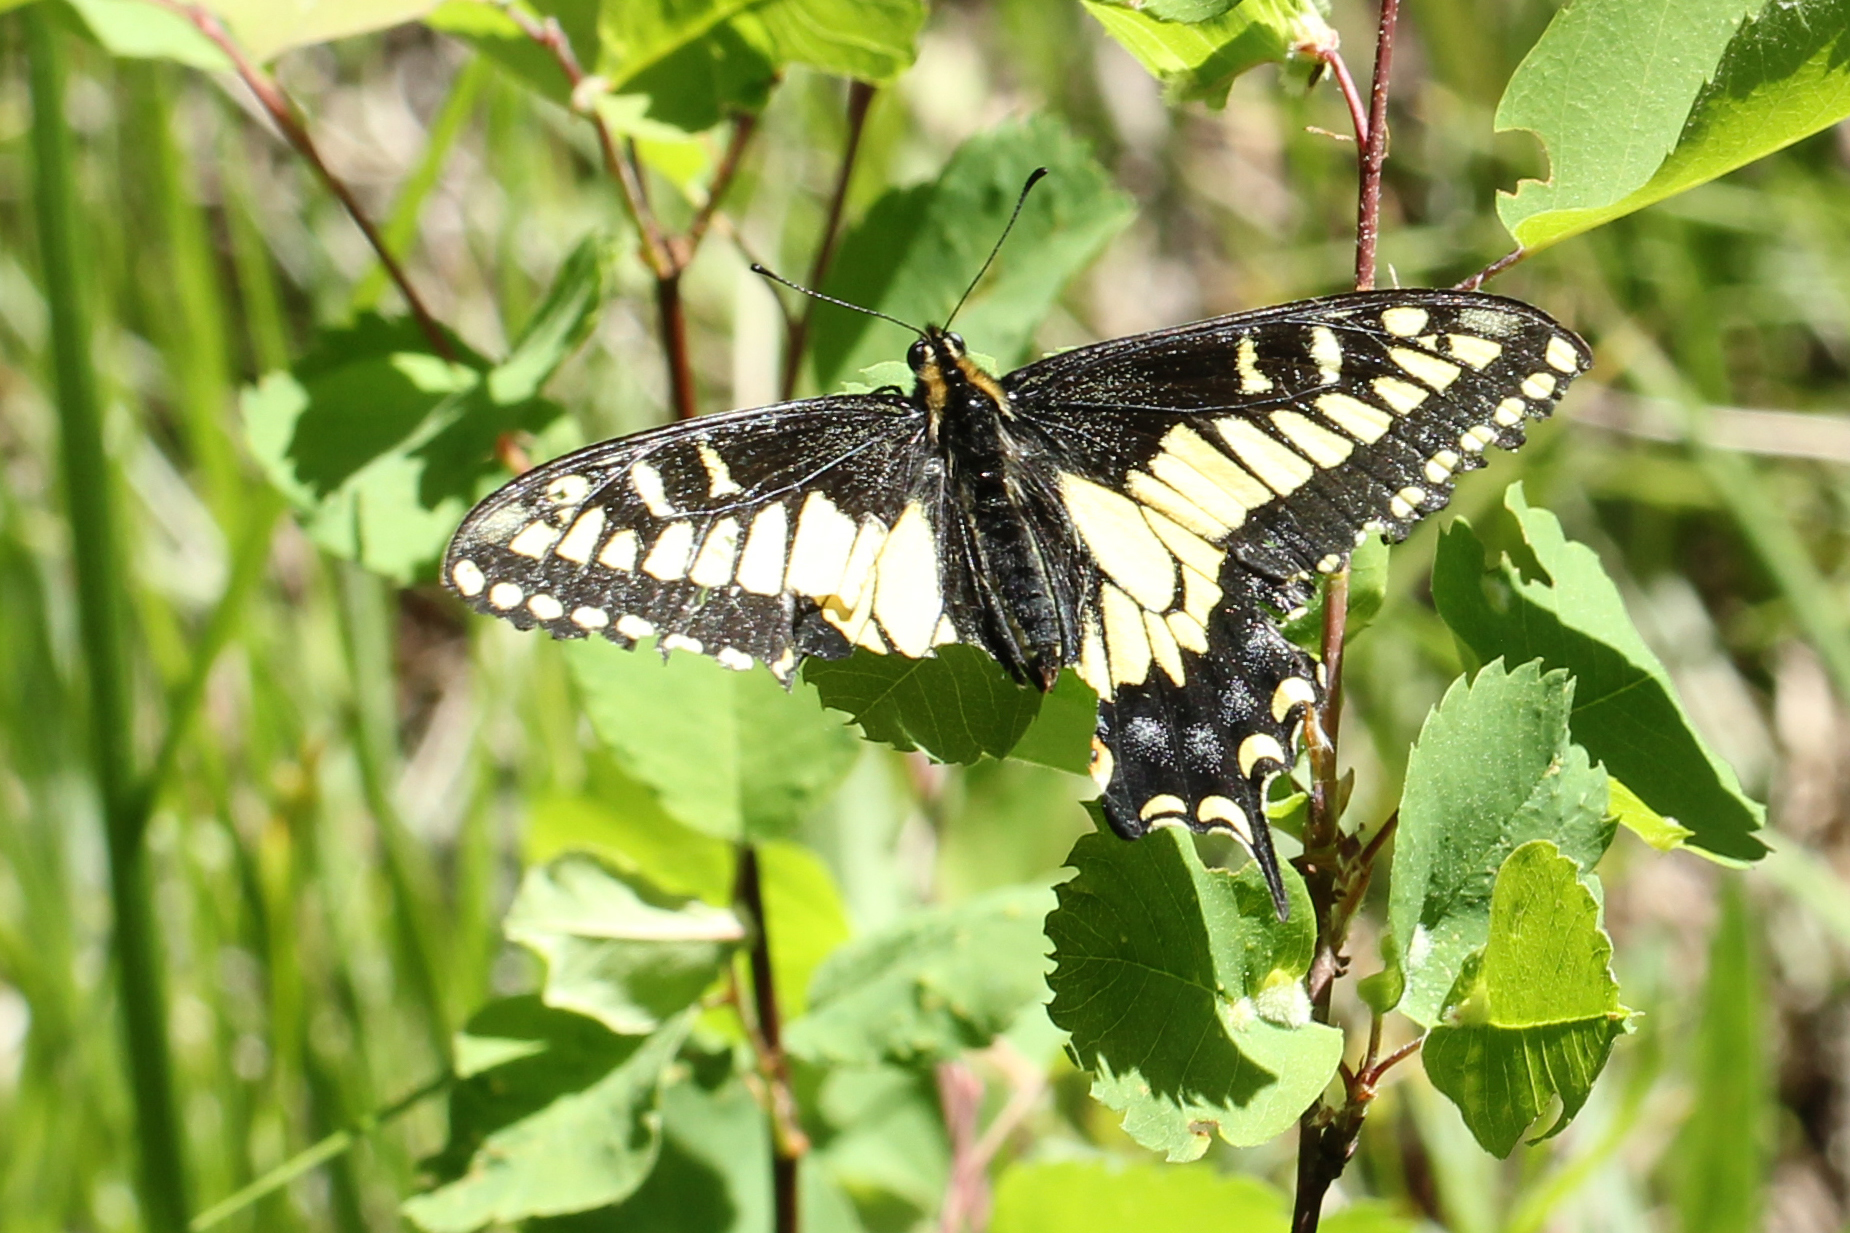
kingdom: Animalia
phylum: Arthropoda
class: Insecta
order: Lepidoptera
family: Papilionidae
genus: Papilio
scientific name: Papilio zelicaon
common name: Anise swallowtail
